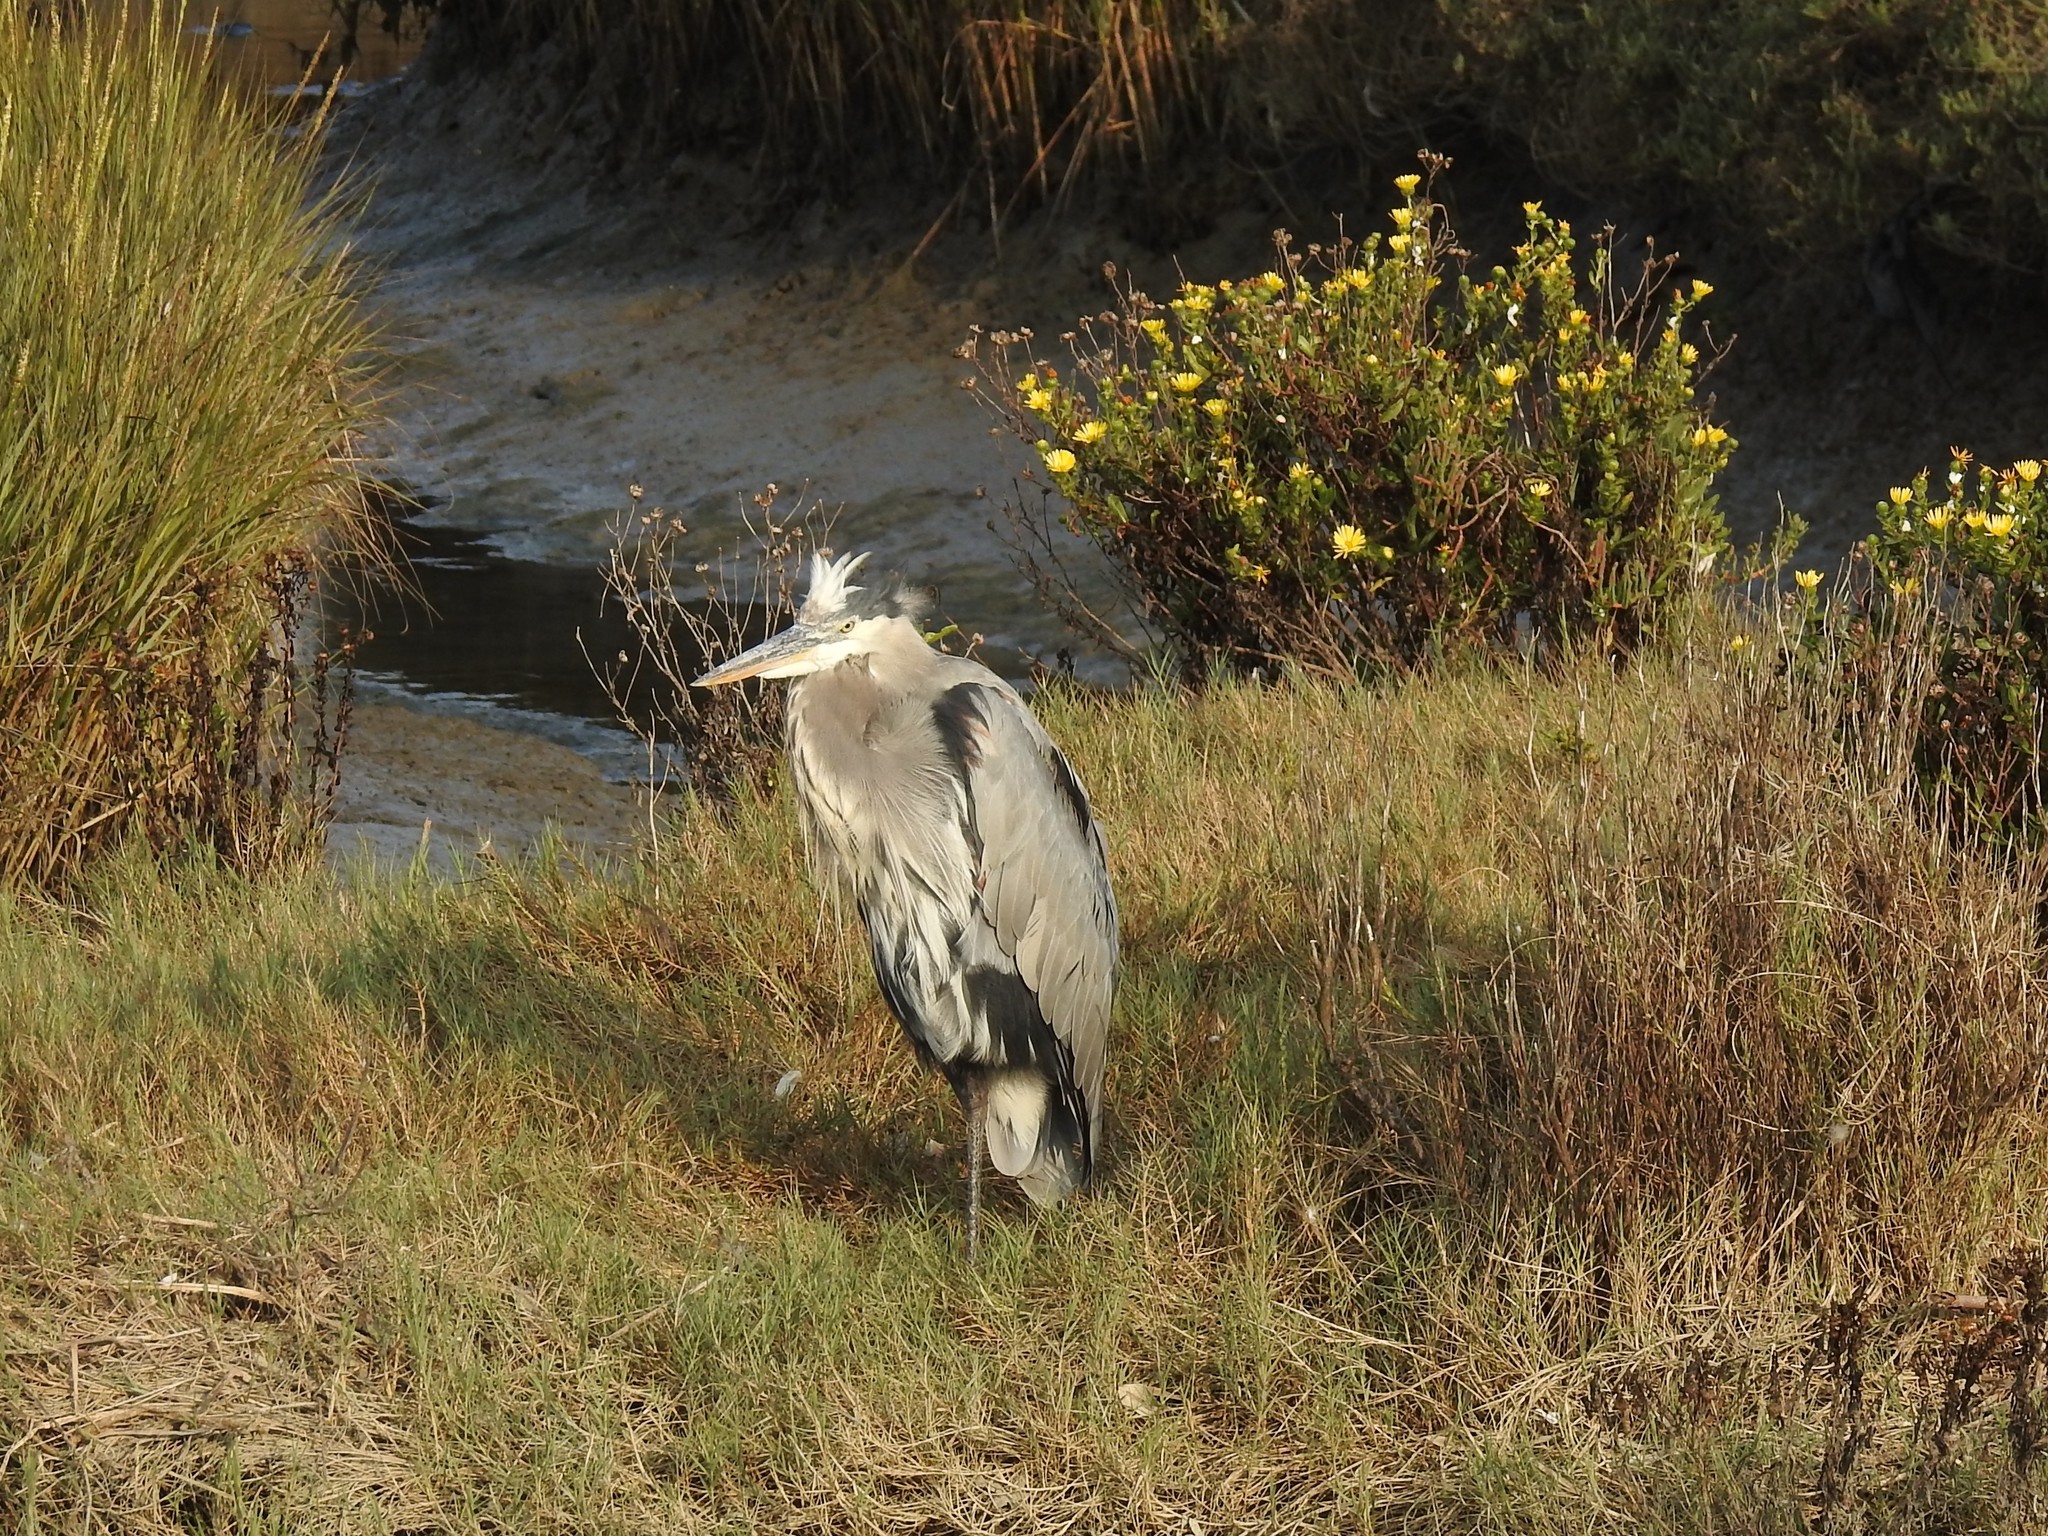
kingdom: Animalia
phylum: Chordata
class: Aves
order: Pelecaniformes
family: Ardeidae
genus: Ardea
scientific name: Ardea herodias
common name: Great blue heron
